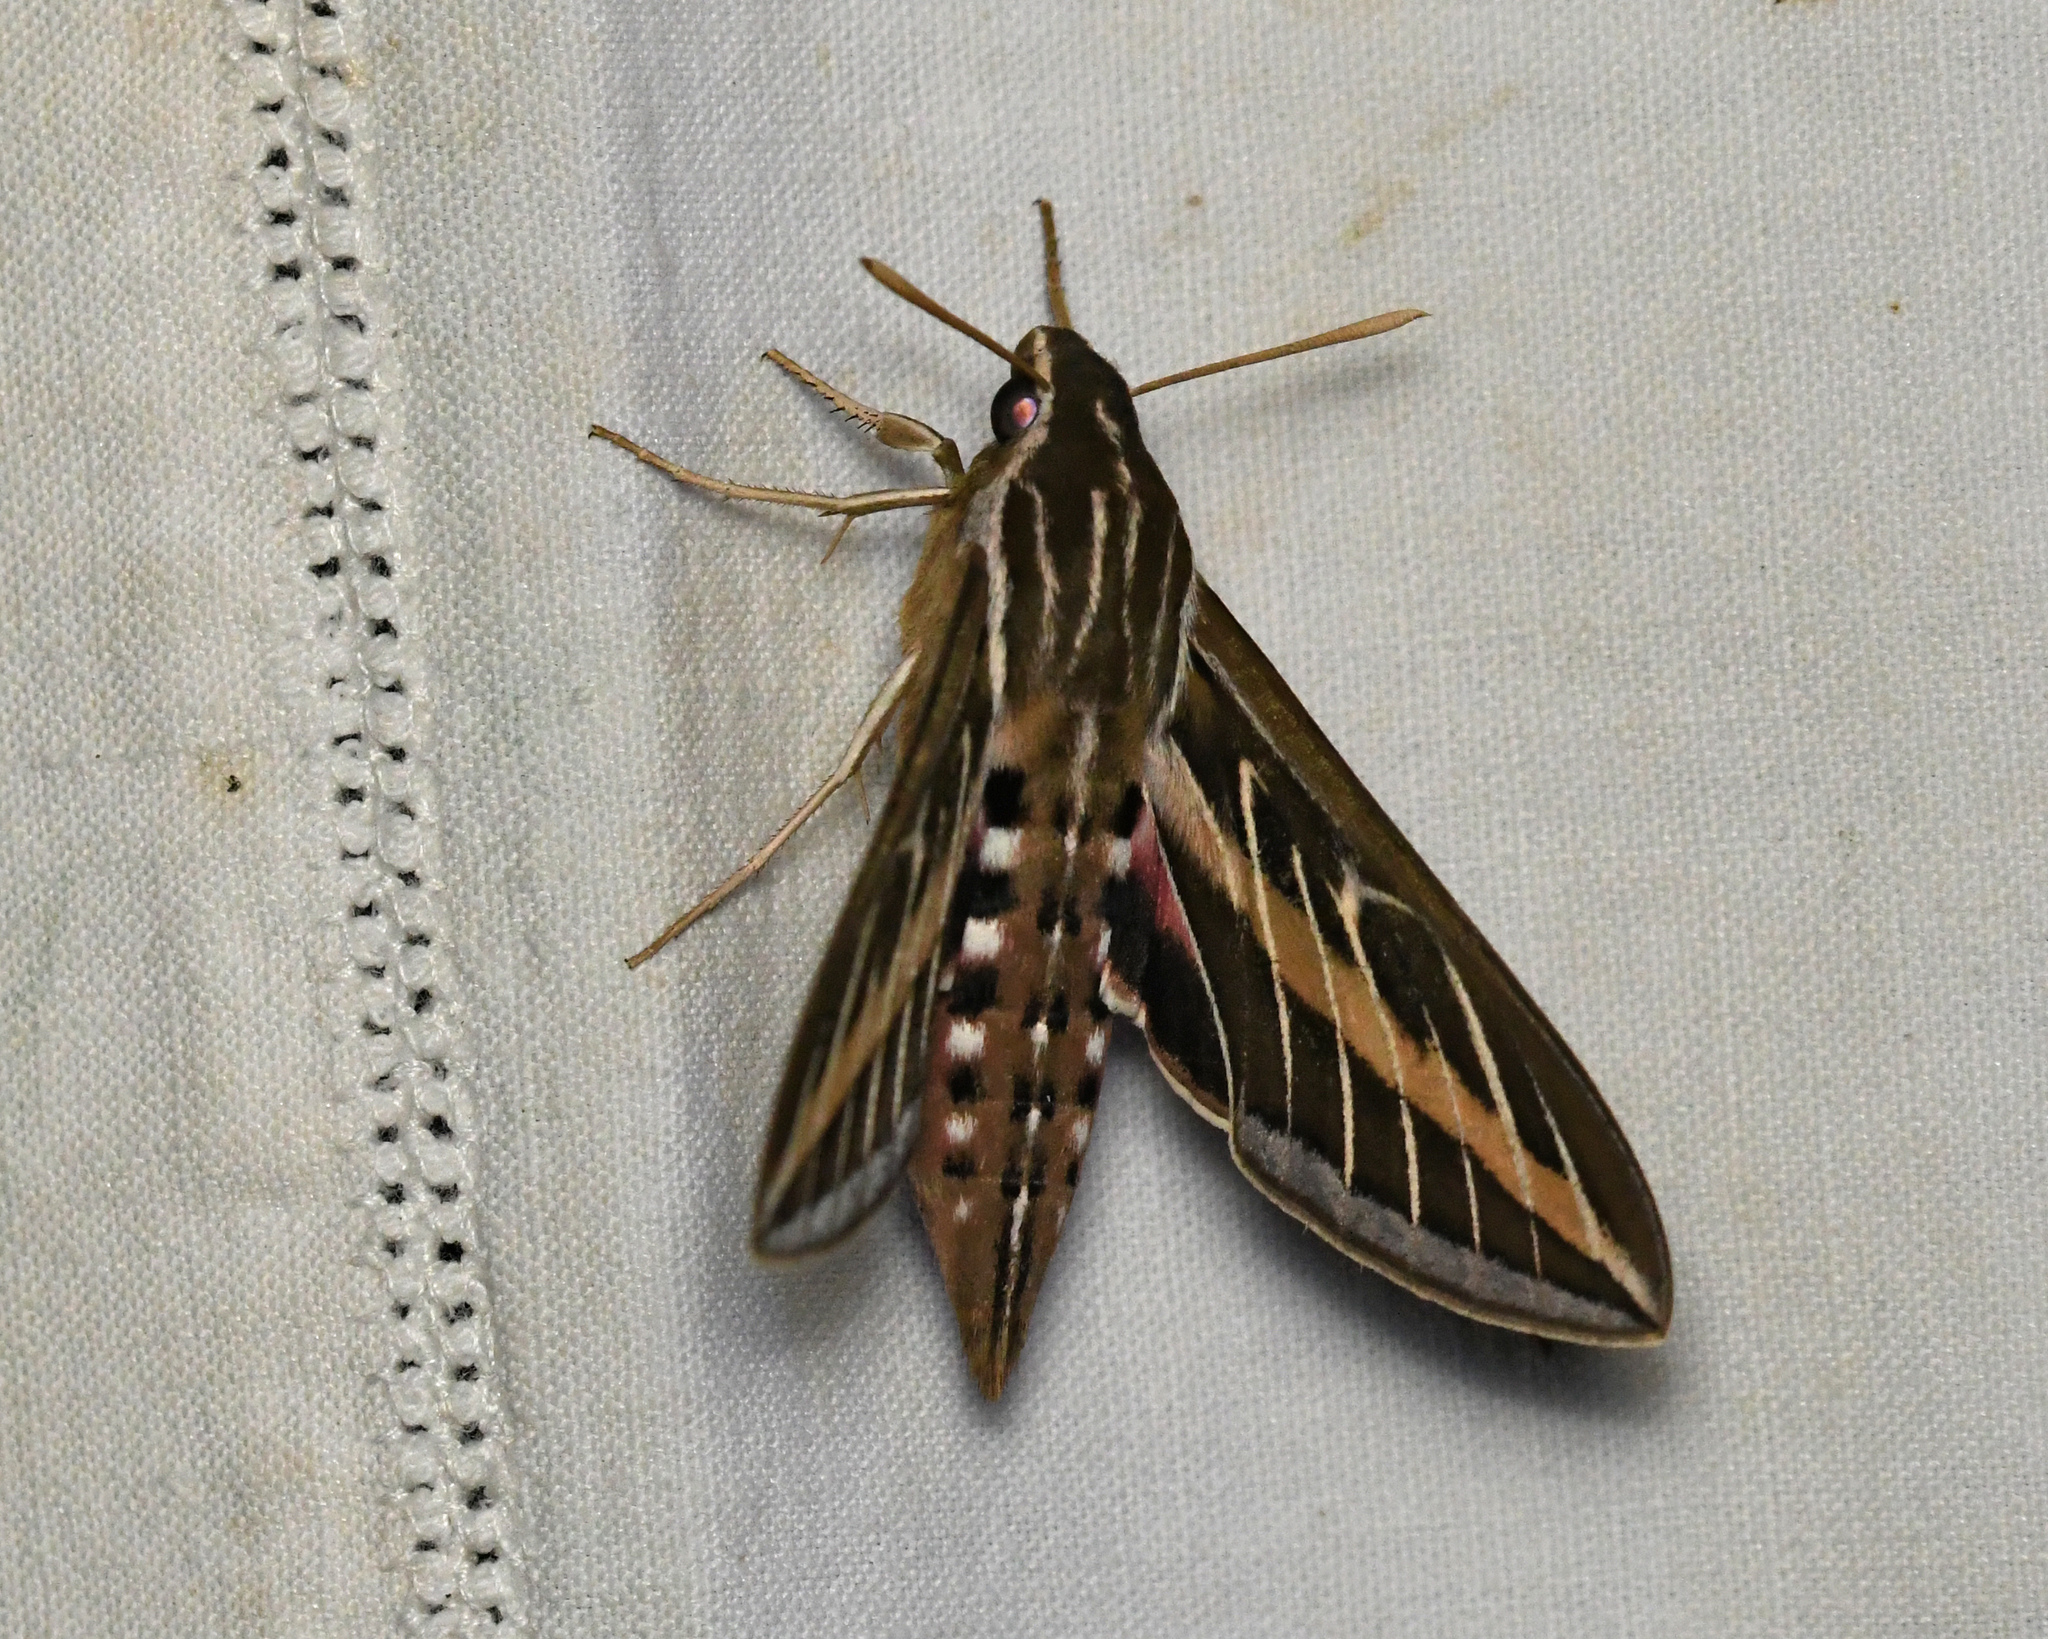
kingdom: Animalia
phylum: Arthropoda
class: Insecta
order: Lepidoptera
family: Sphingidae
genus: Hyles
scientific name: Hyles lineata
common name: White-lined sphinx
